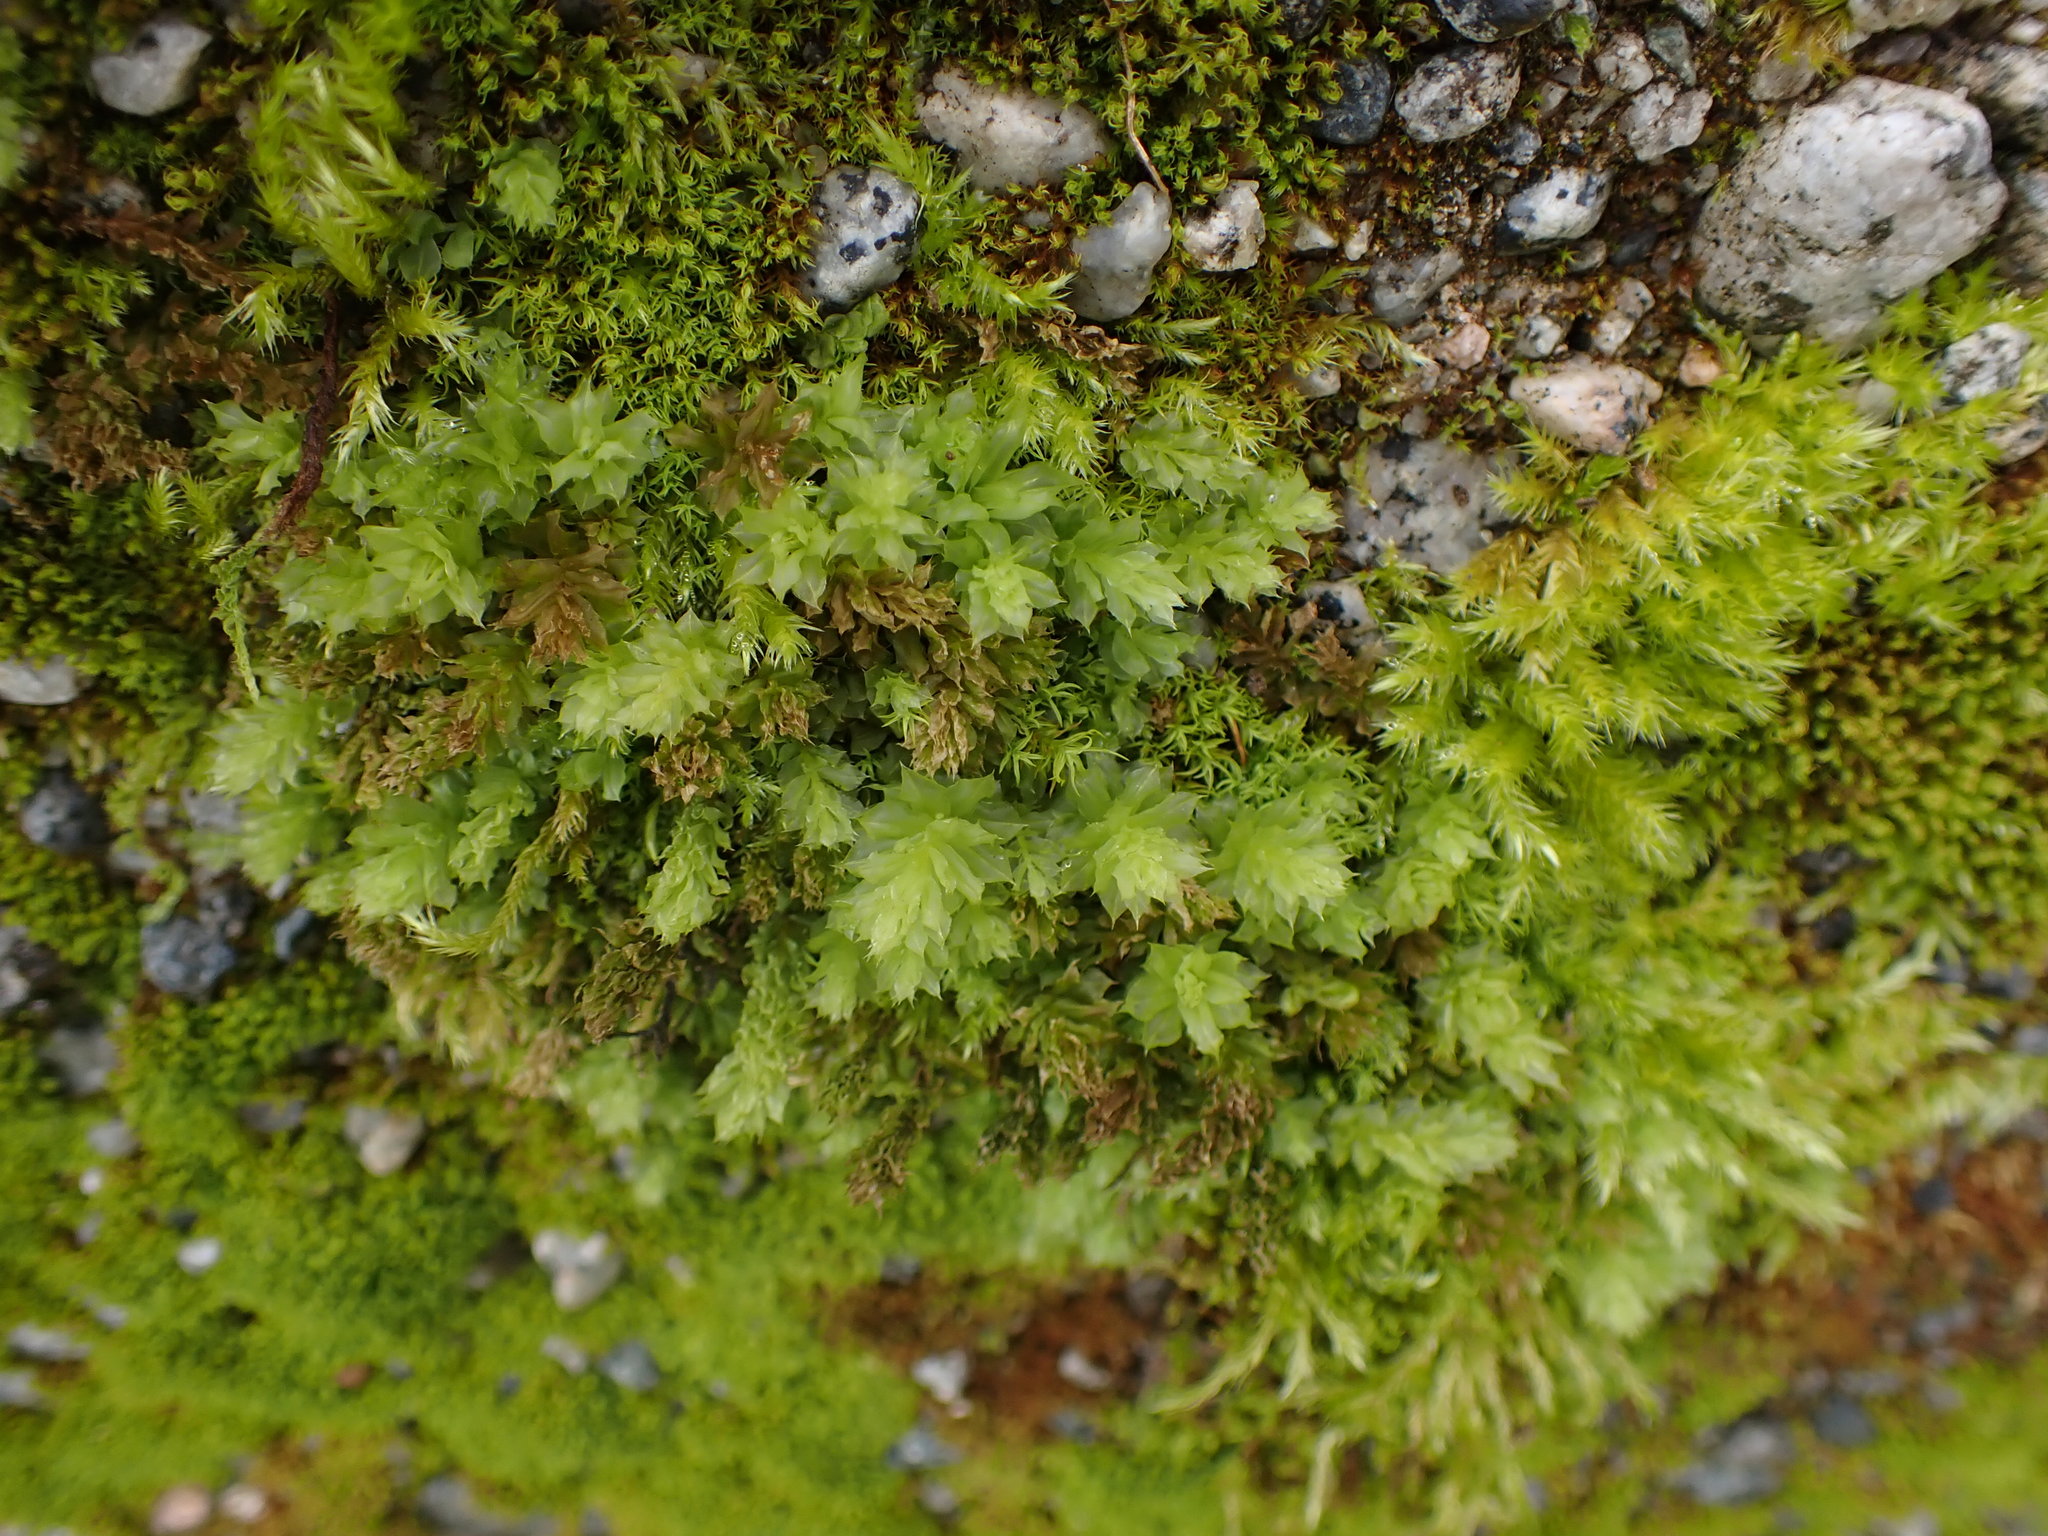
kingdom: Plantae
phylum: Bryophyta
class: Bryopsida
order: Bryales
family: Mniaceae
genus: Plagiomnium
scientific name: Plagiomnium venustum
